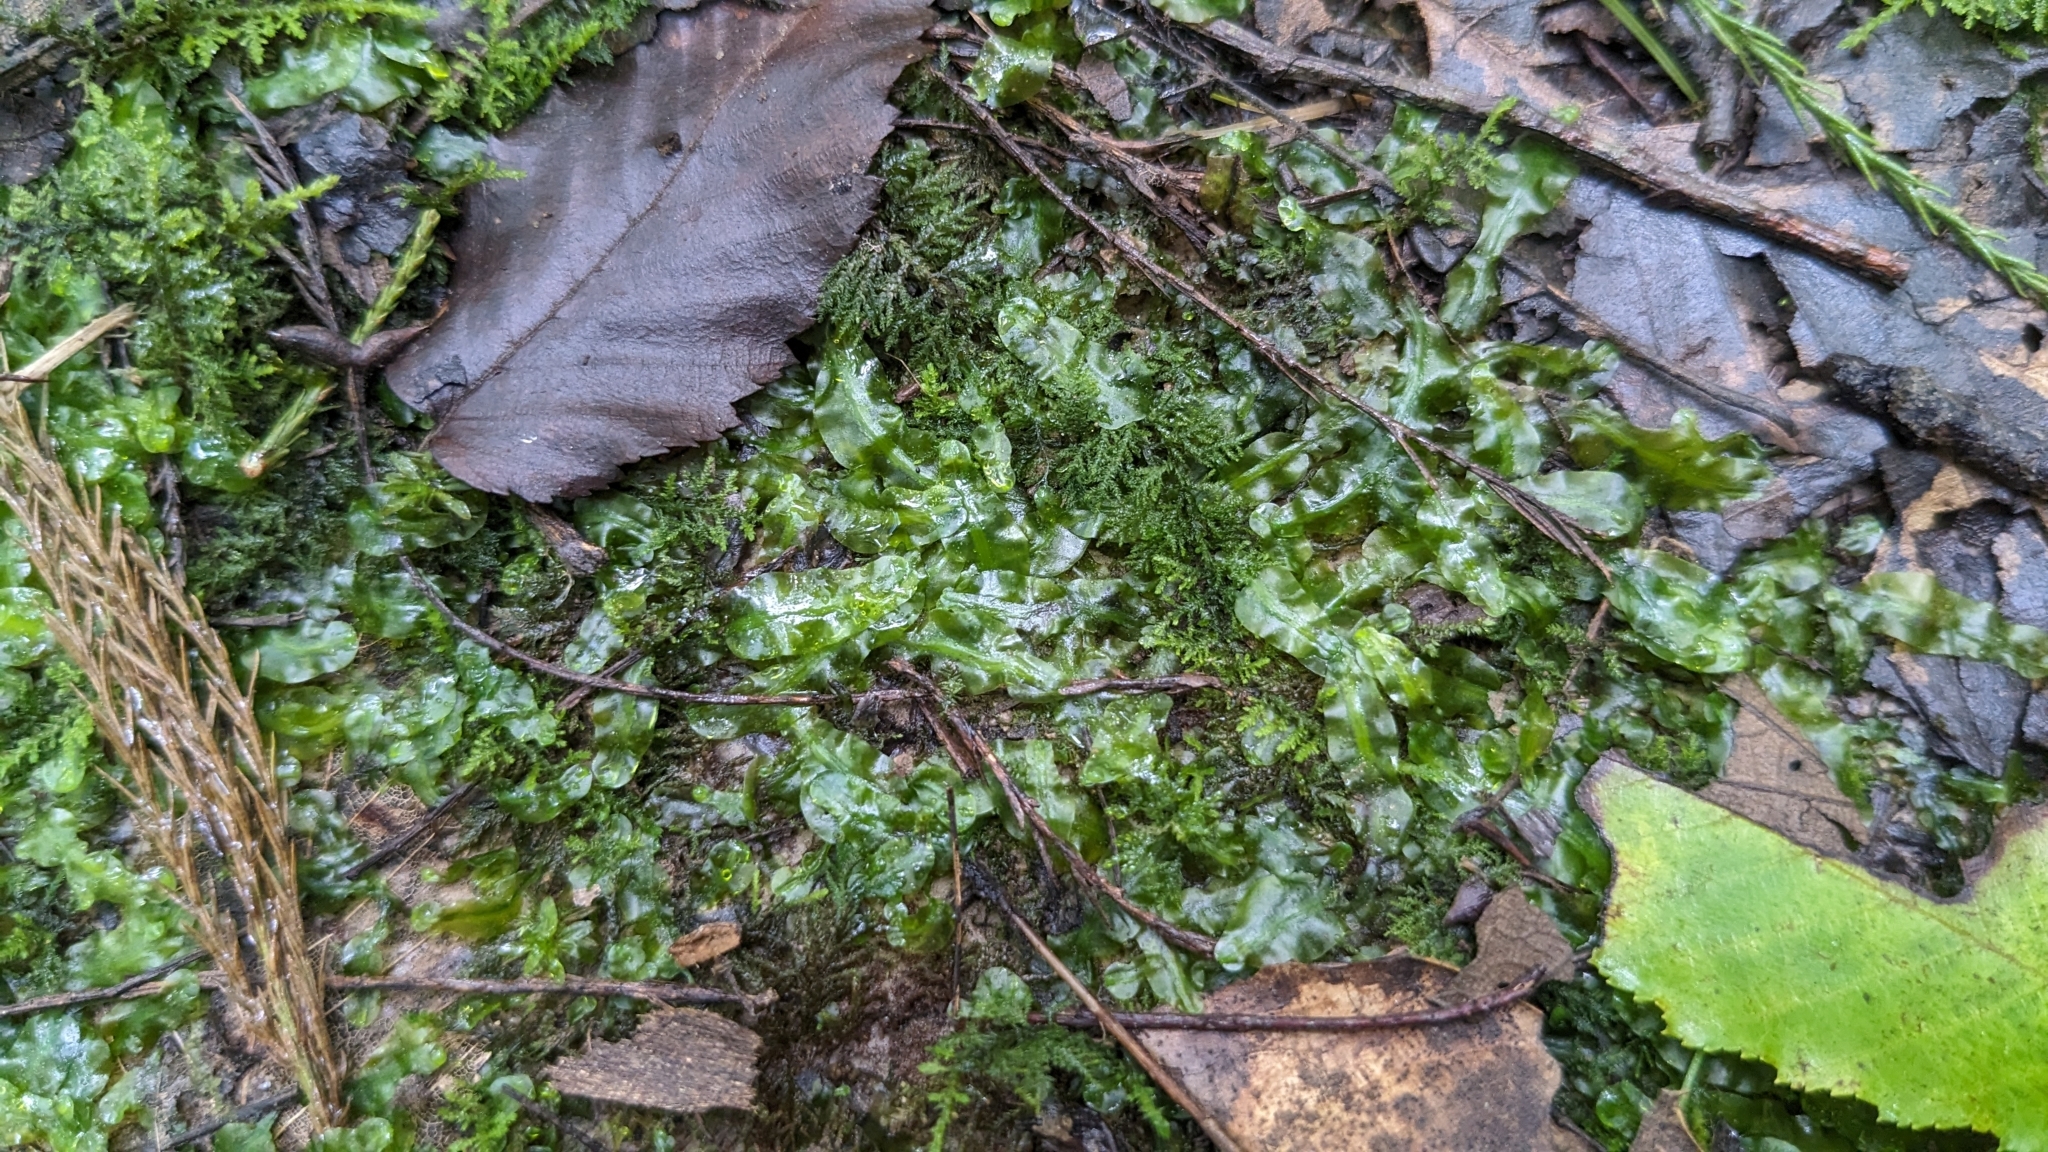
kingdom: Plantae
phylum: Marchantiophyta
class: Jungermanniopsida
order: Pallaviciniales
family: Pallaviciniaceae
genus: Pallavicinia
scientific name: Pallavicinia lyellii
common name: Veilwort
